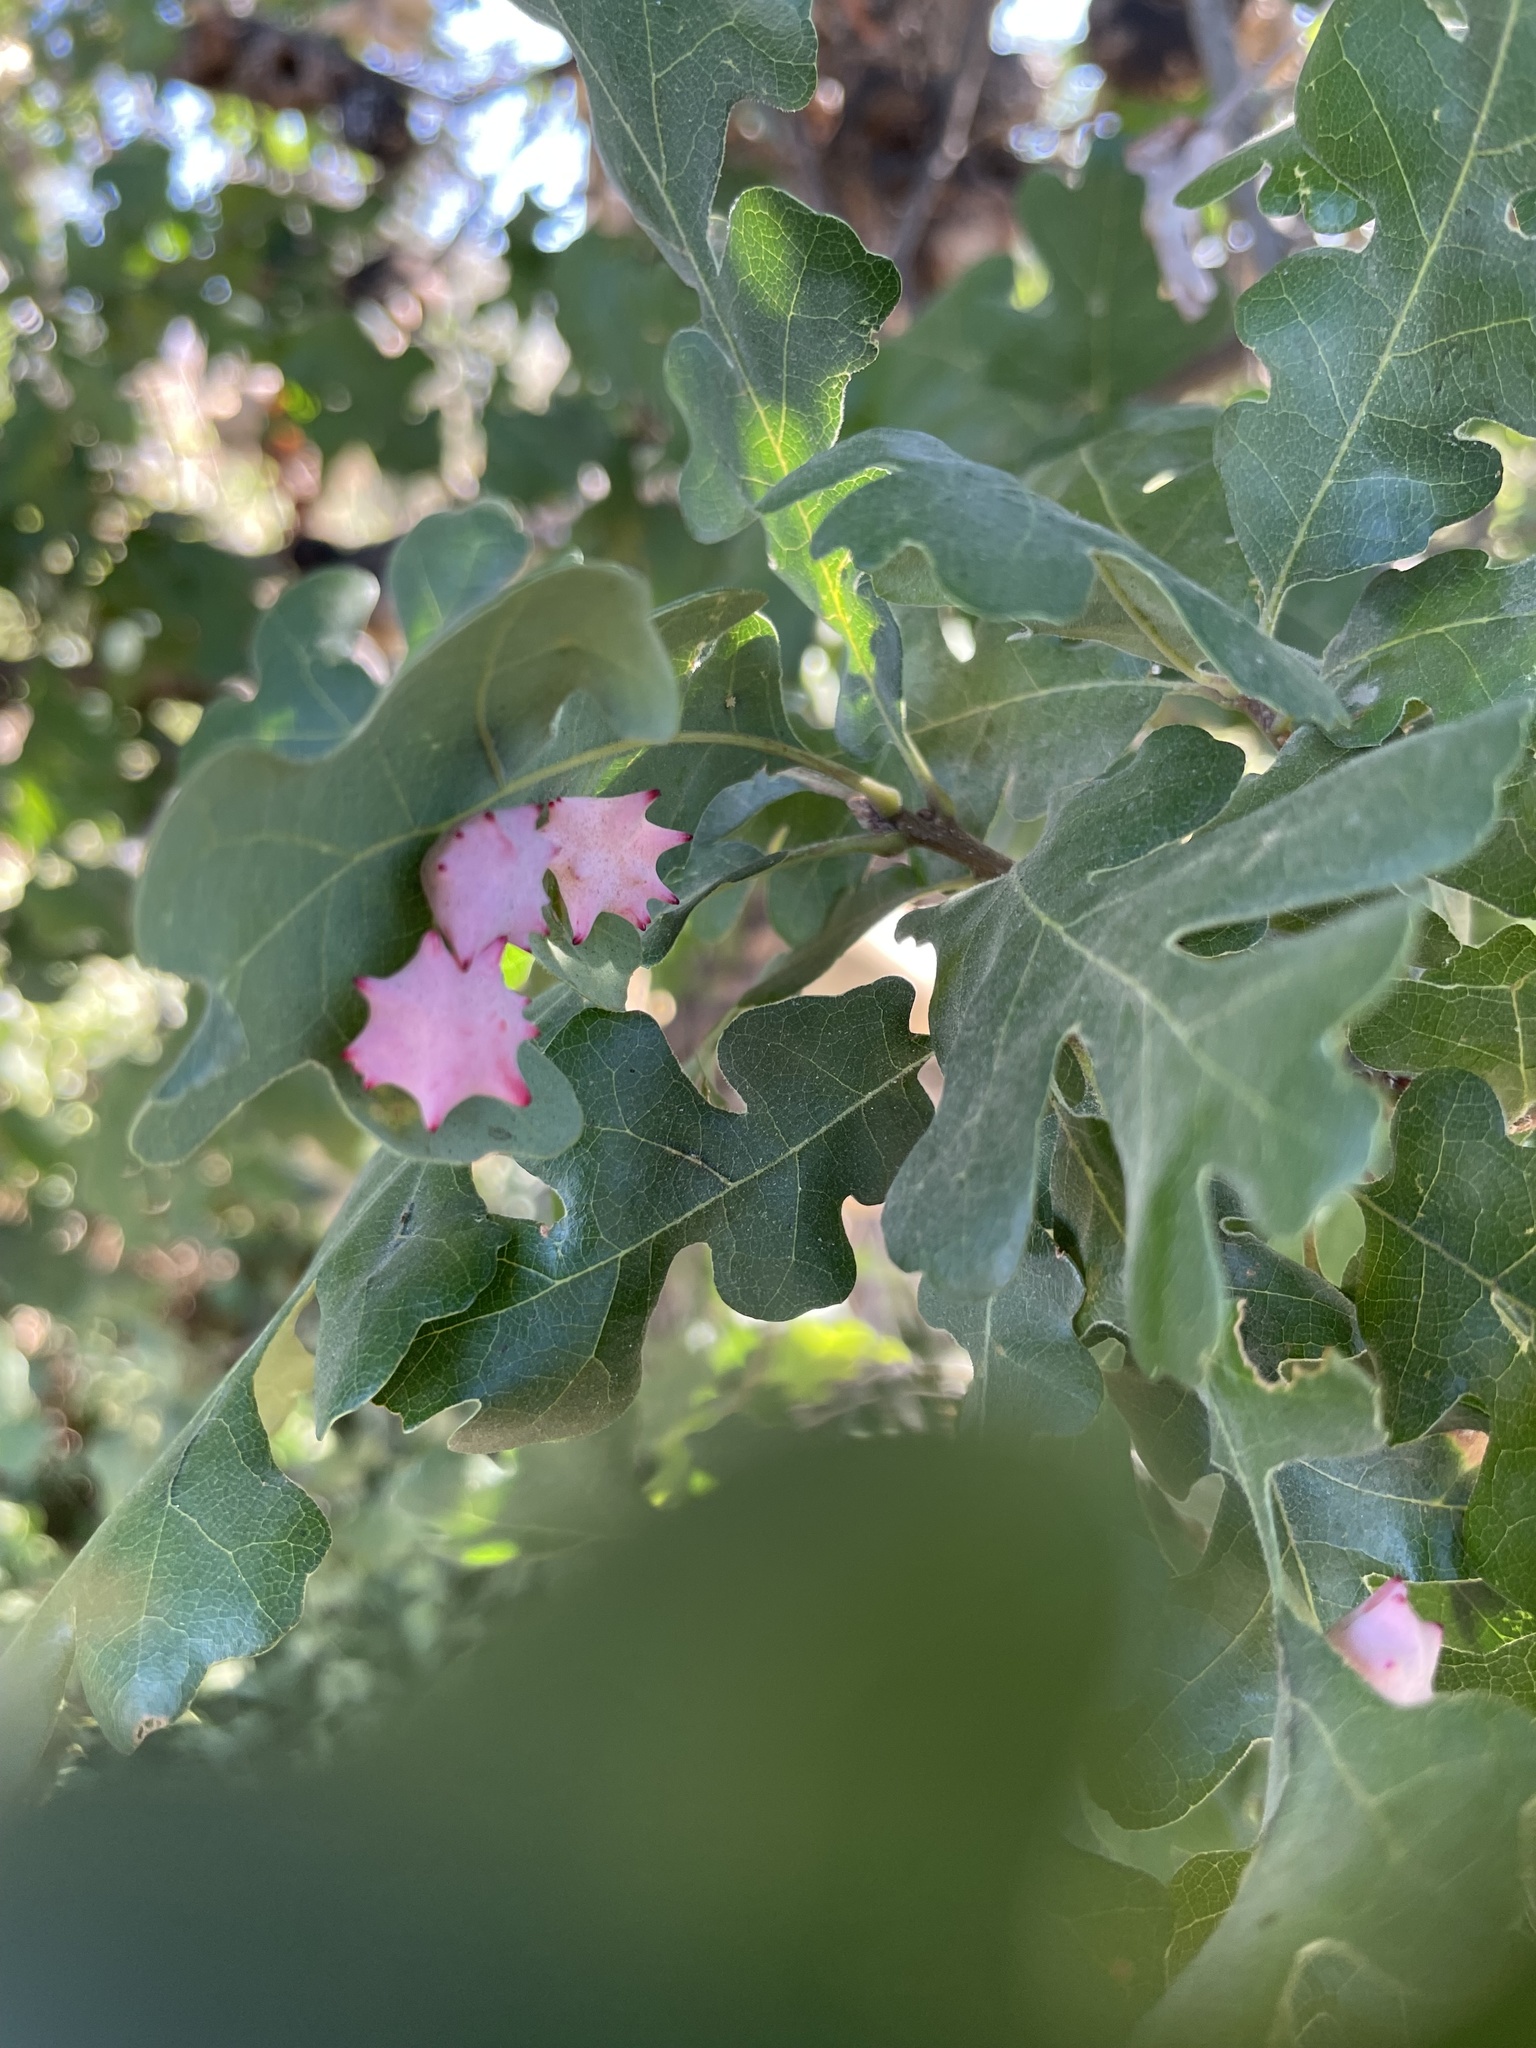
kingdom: Animalia
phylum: Arthropoda
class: Insecta
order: Hymenoptera
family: Cynipidae
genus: Cynips
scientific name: Cynips douglasi
